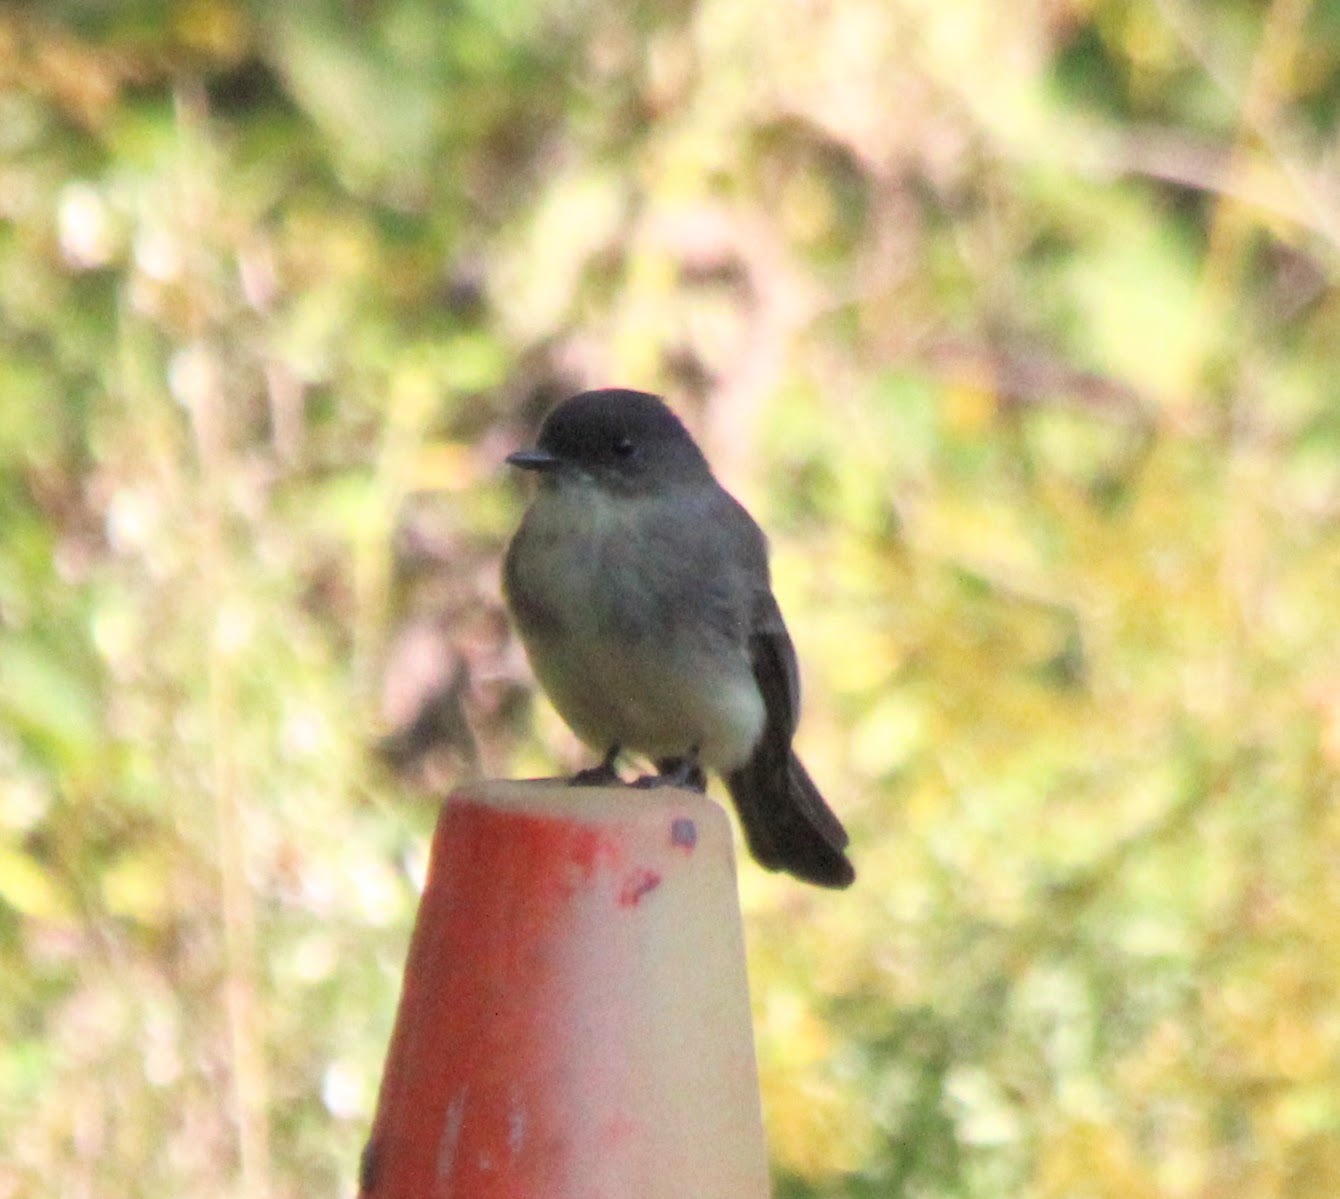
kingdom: Animalia
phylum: Chordata
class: Aves
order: Passeriformes
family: Tyrannidae
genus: Sayornis
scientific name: Sayornis phoebe
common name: Eastern phoebe
